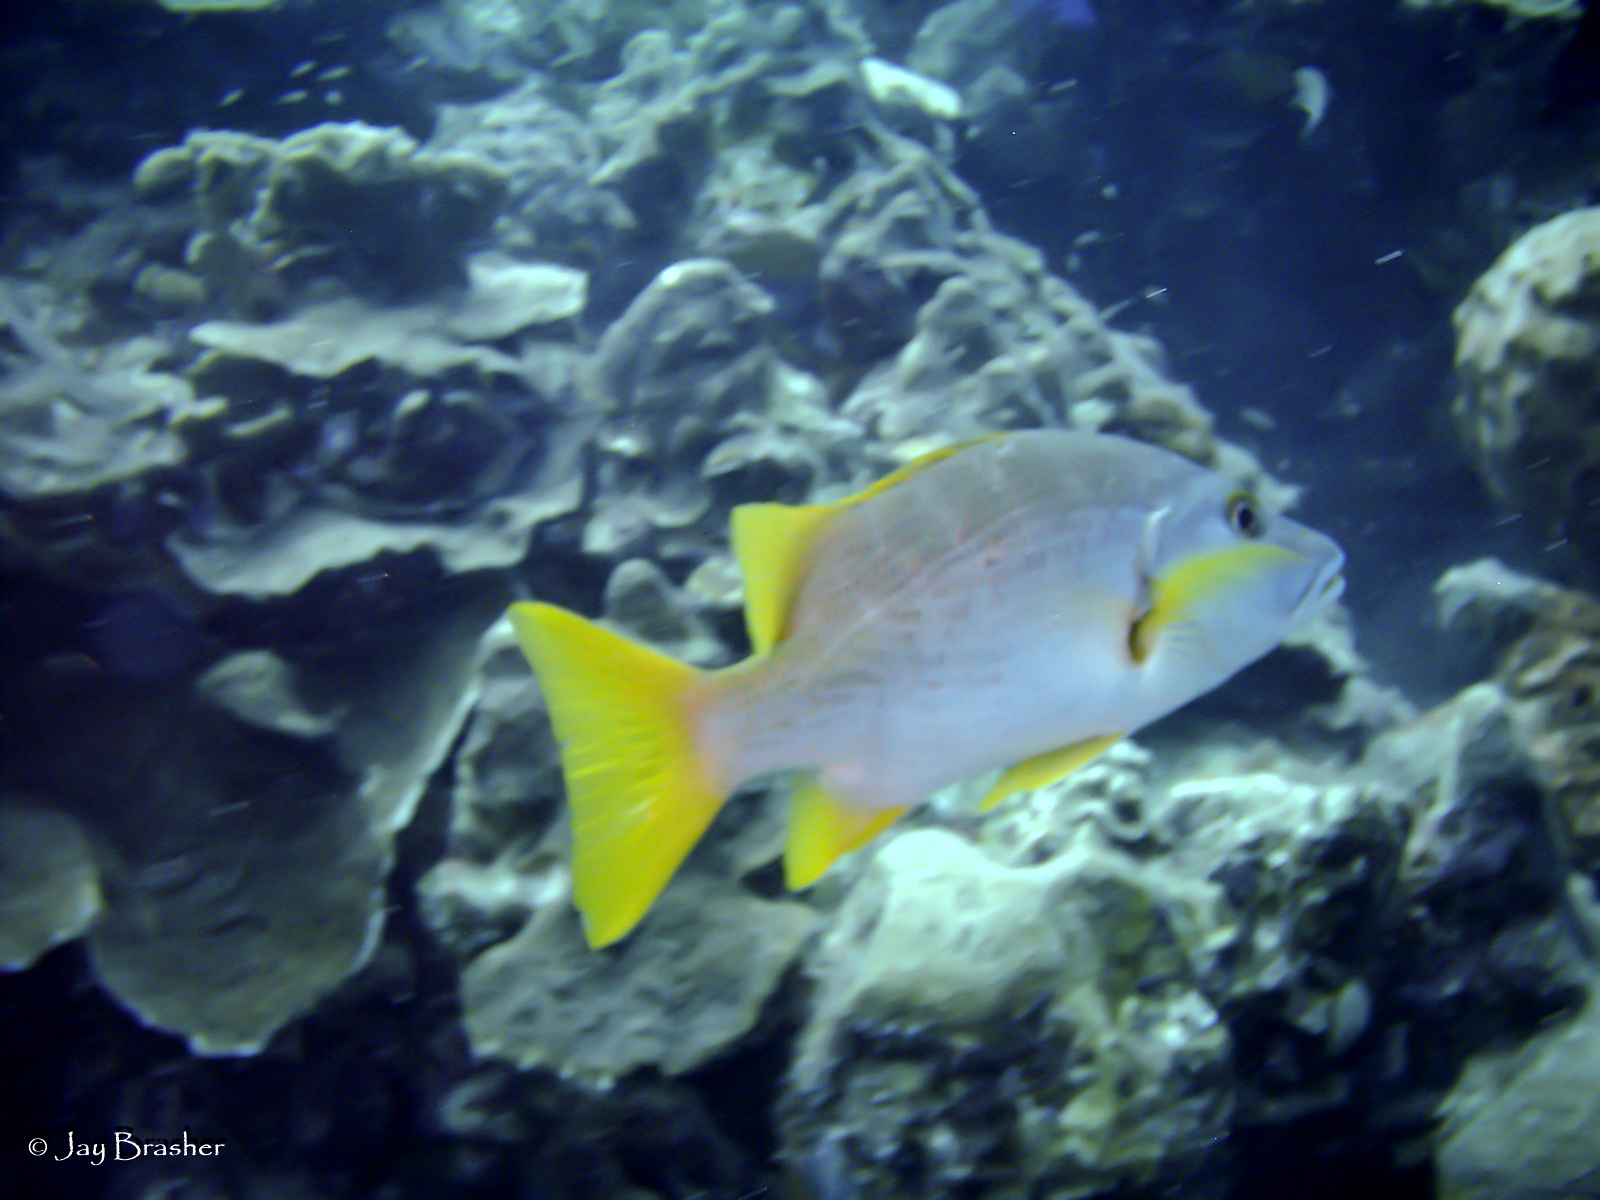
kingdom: Animalia
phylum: Chordata
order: Perciformes
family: Lutjanidae
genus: Lutjanus
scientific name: Lutjanus apodus
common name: Schoolmaster
